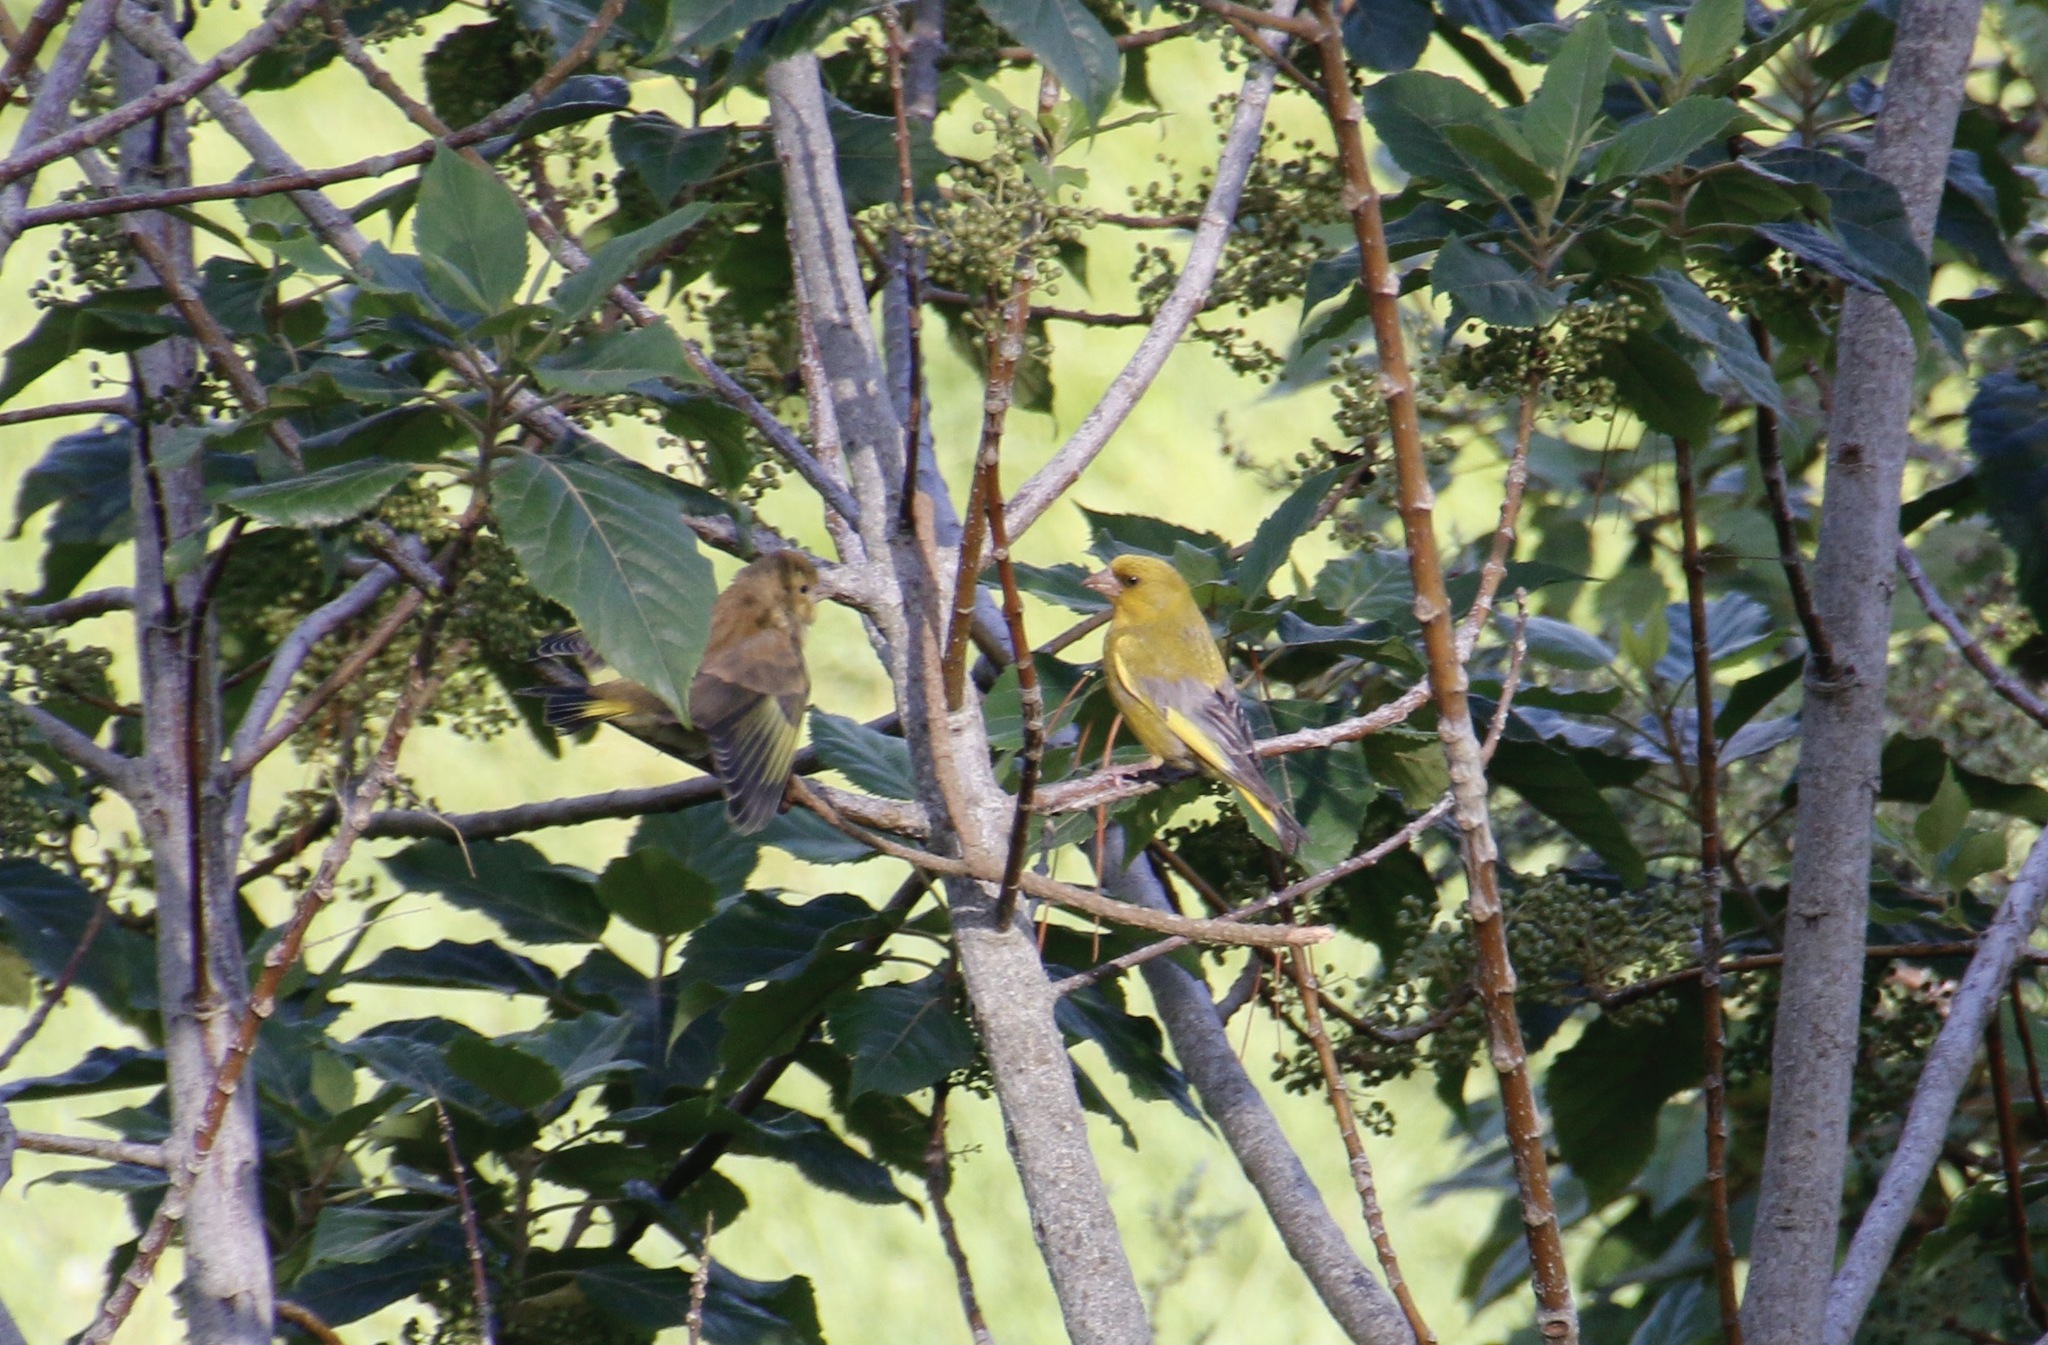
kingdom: Plantae
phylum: Tracheophyta
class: Liliopsida
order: Poales
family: Poaceae
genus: Chloris
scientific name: Chloris chloris
